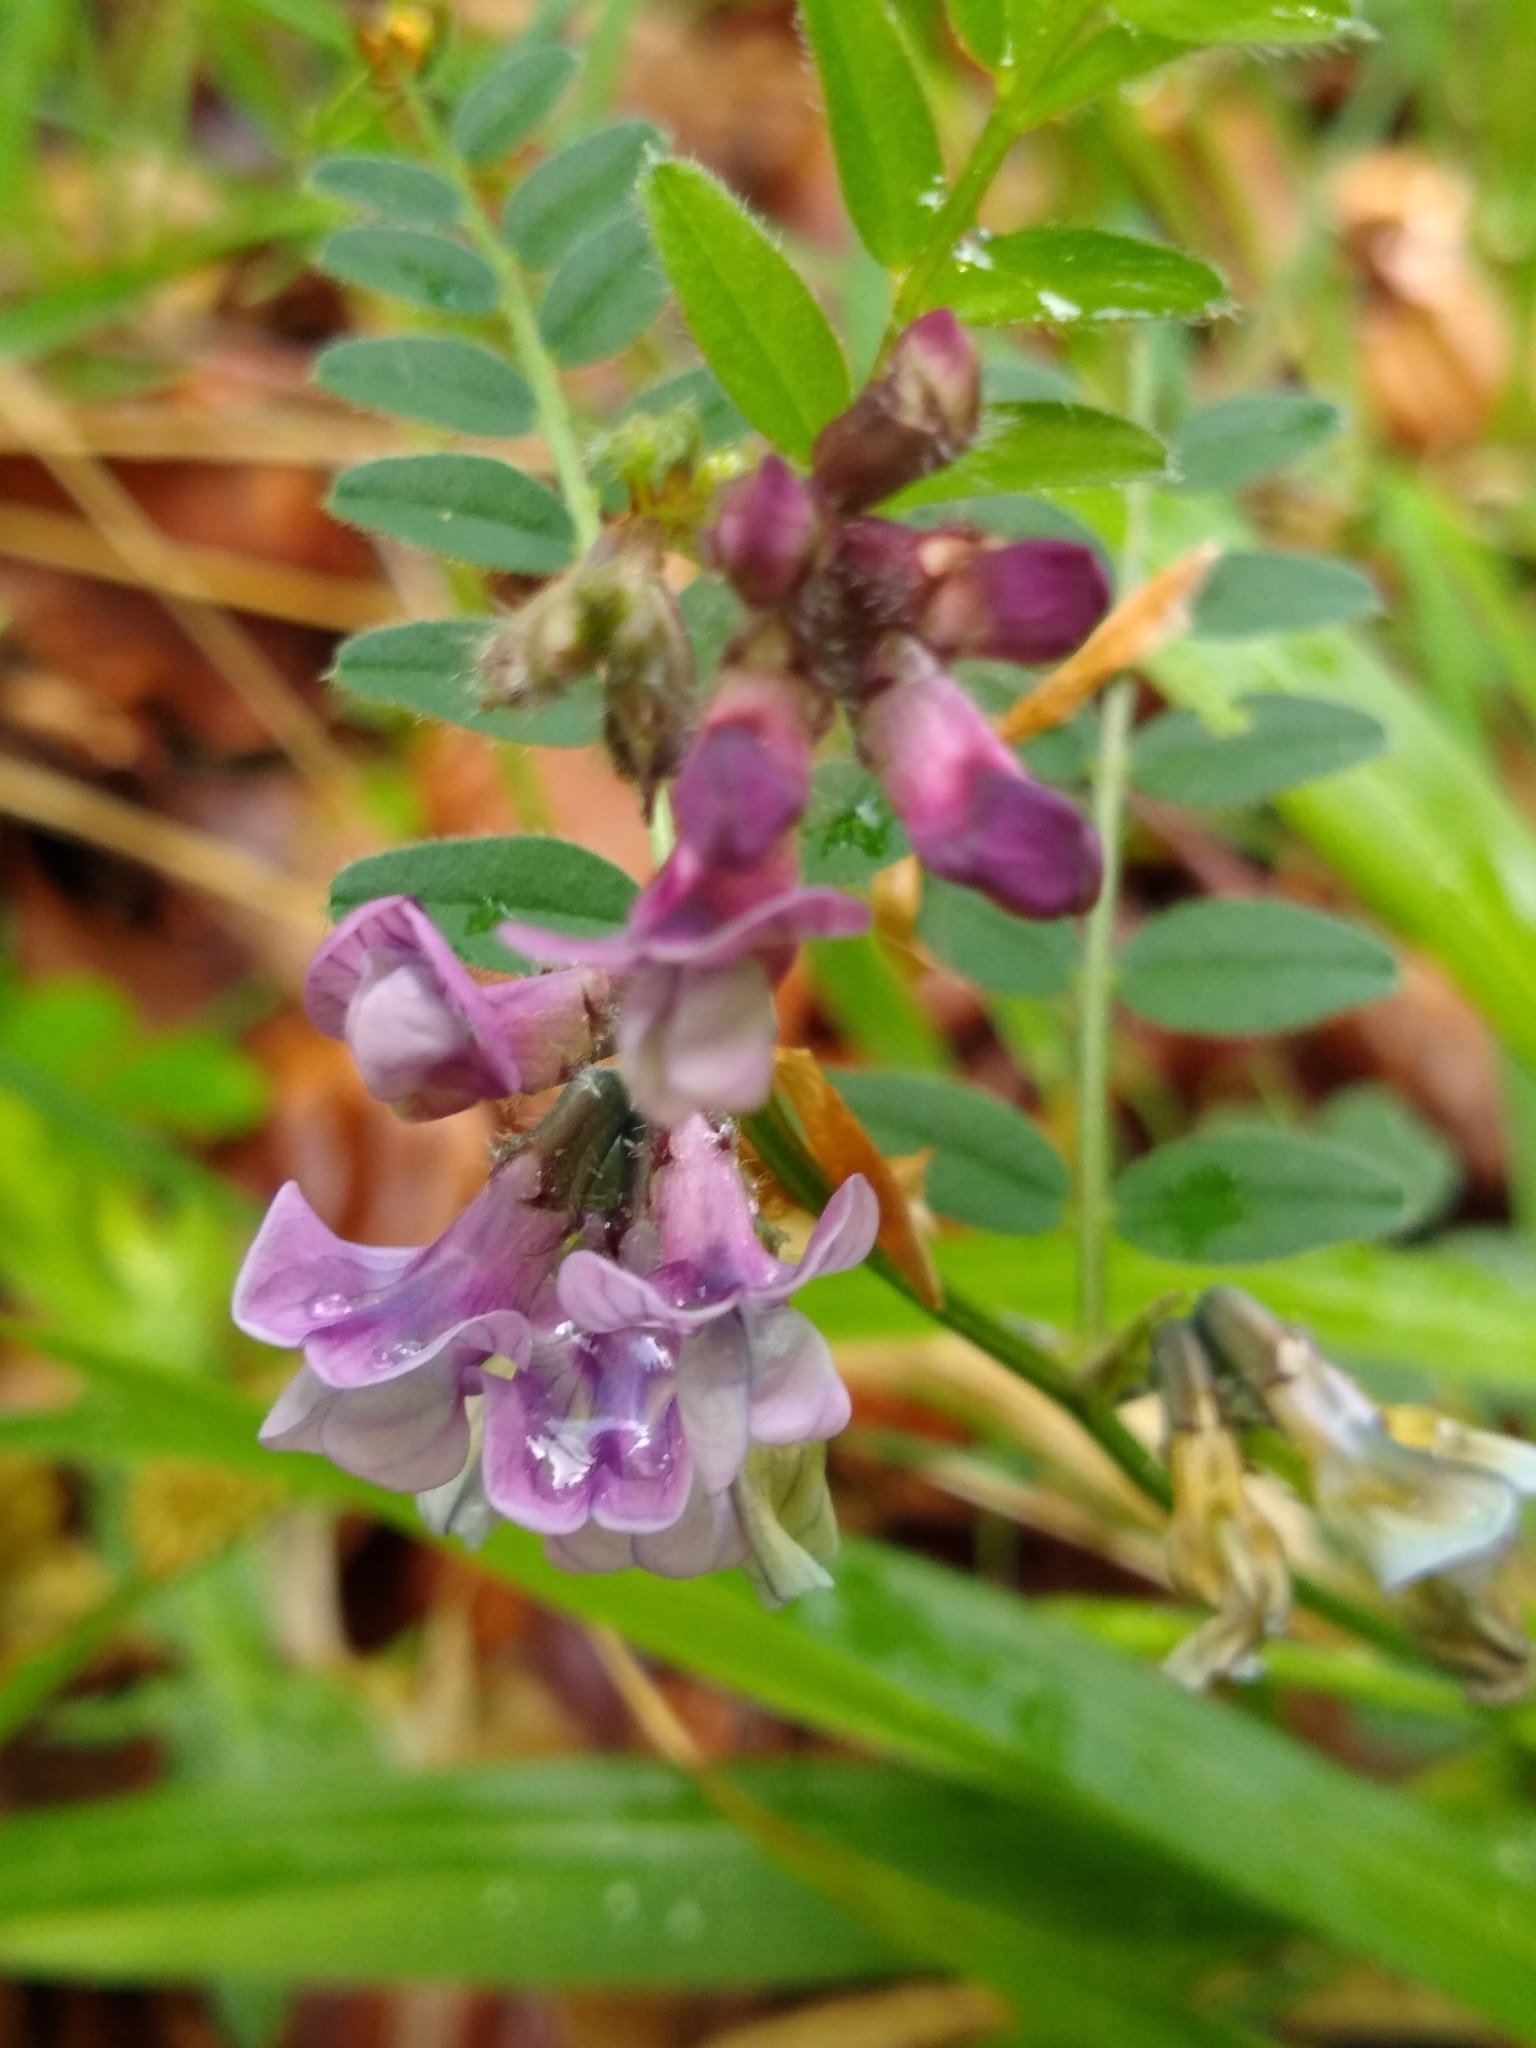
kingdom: Plantae
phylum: Tracheophyta
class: Magnoliopsida
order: Fabales
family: Fabaceae
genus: Vicia
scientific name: Vicia sepium
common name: Bush vetch
